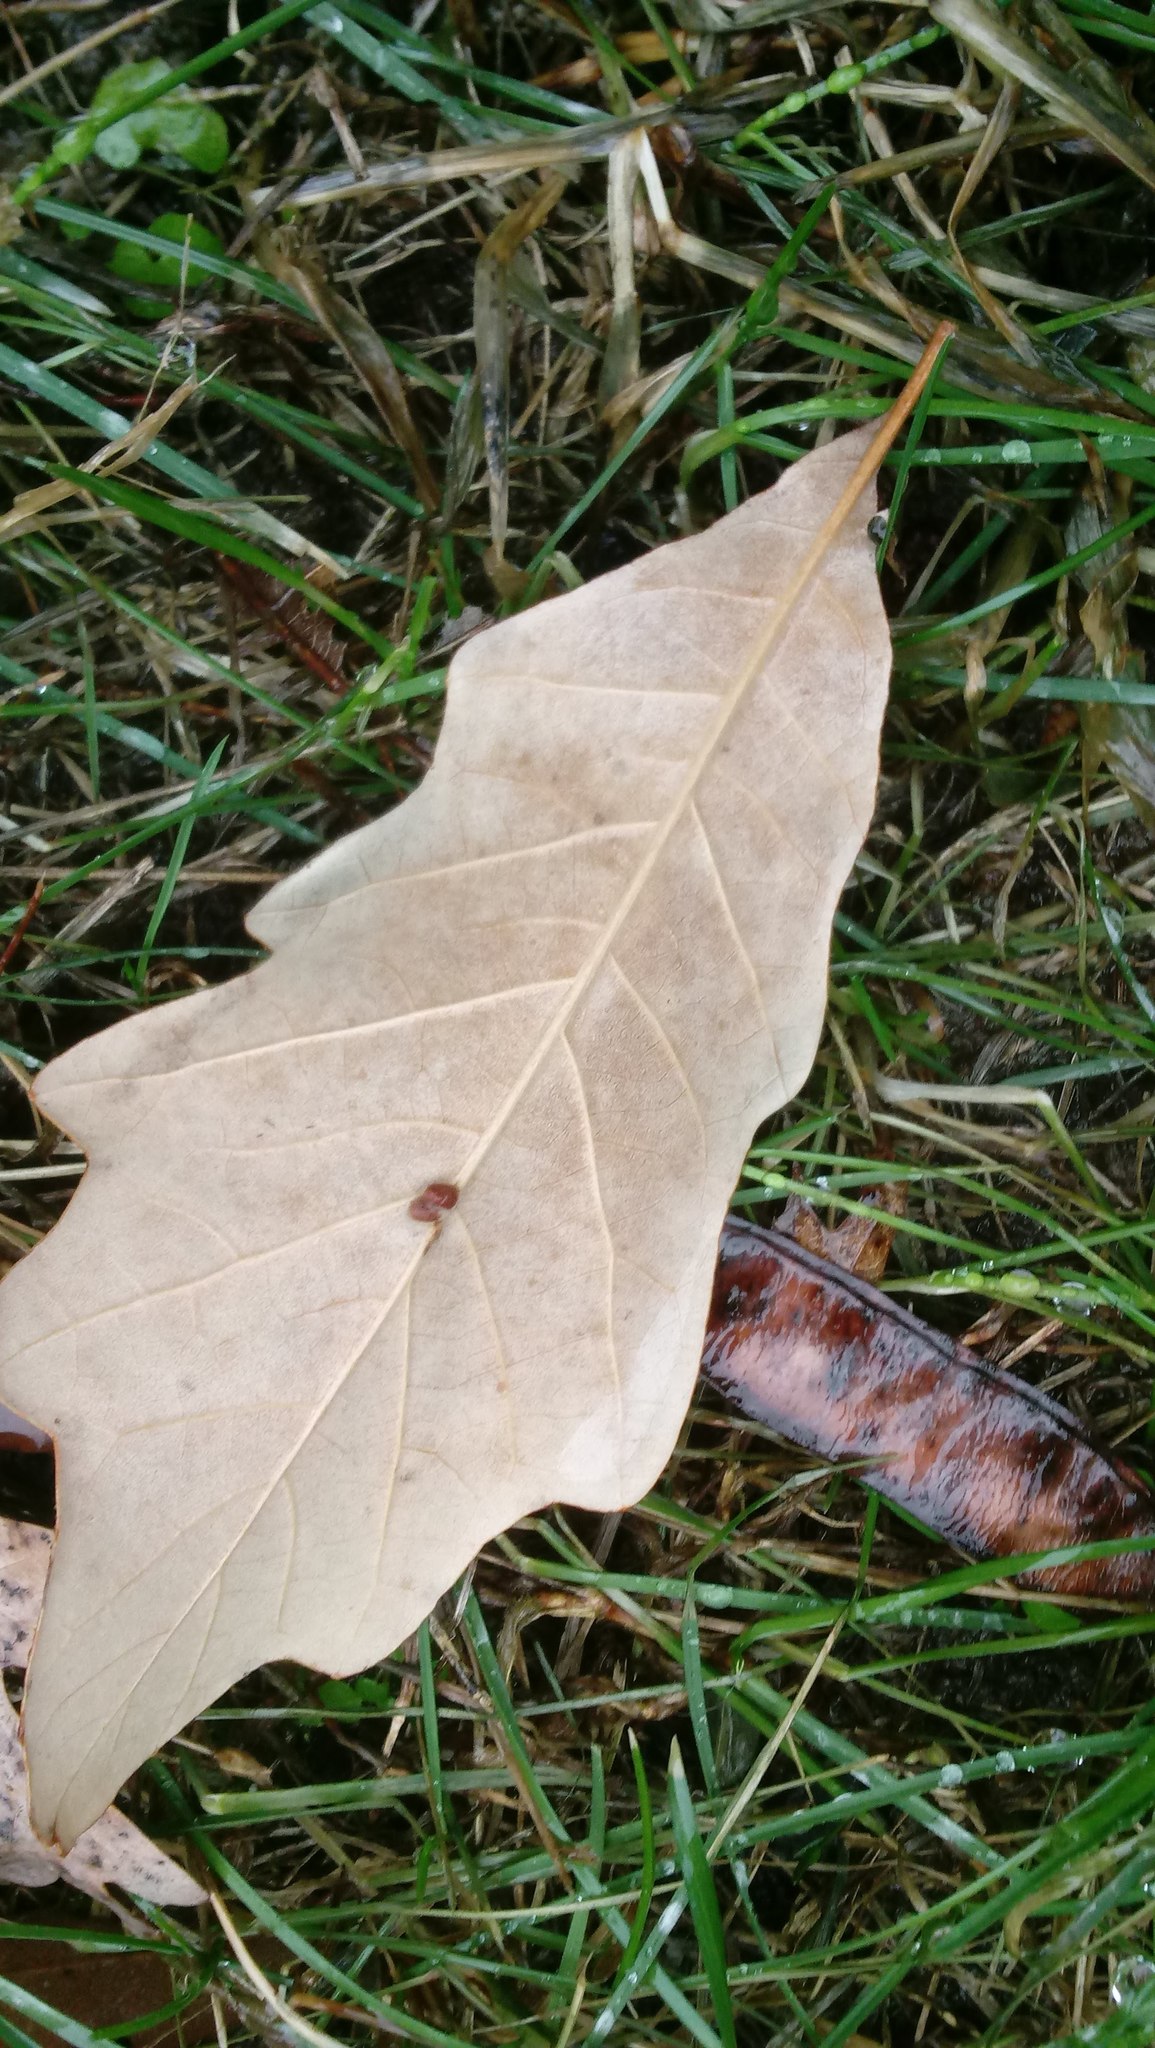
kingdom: Animalia
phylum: Arthropoda
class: Insecta
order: Hymenoptera
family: Cynipidae
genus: Andricus
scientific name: Andricus Druon ignotum
